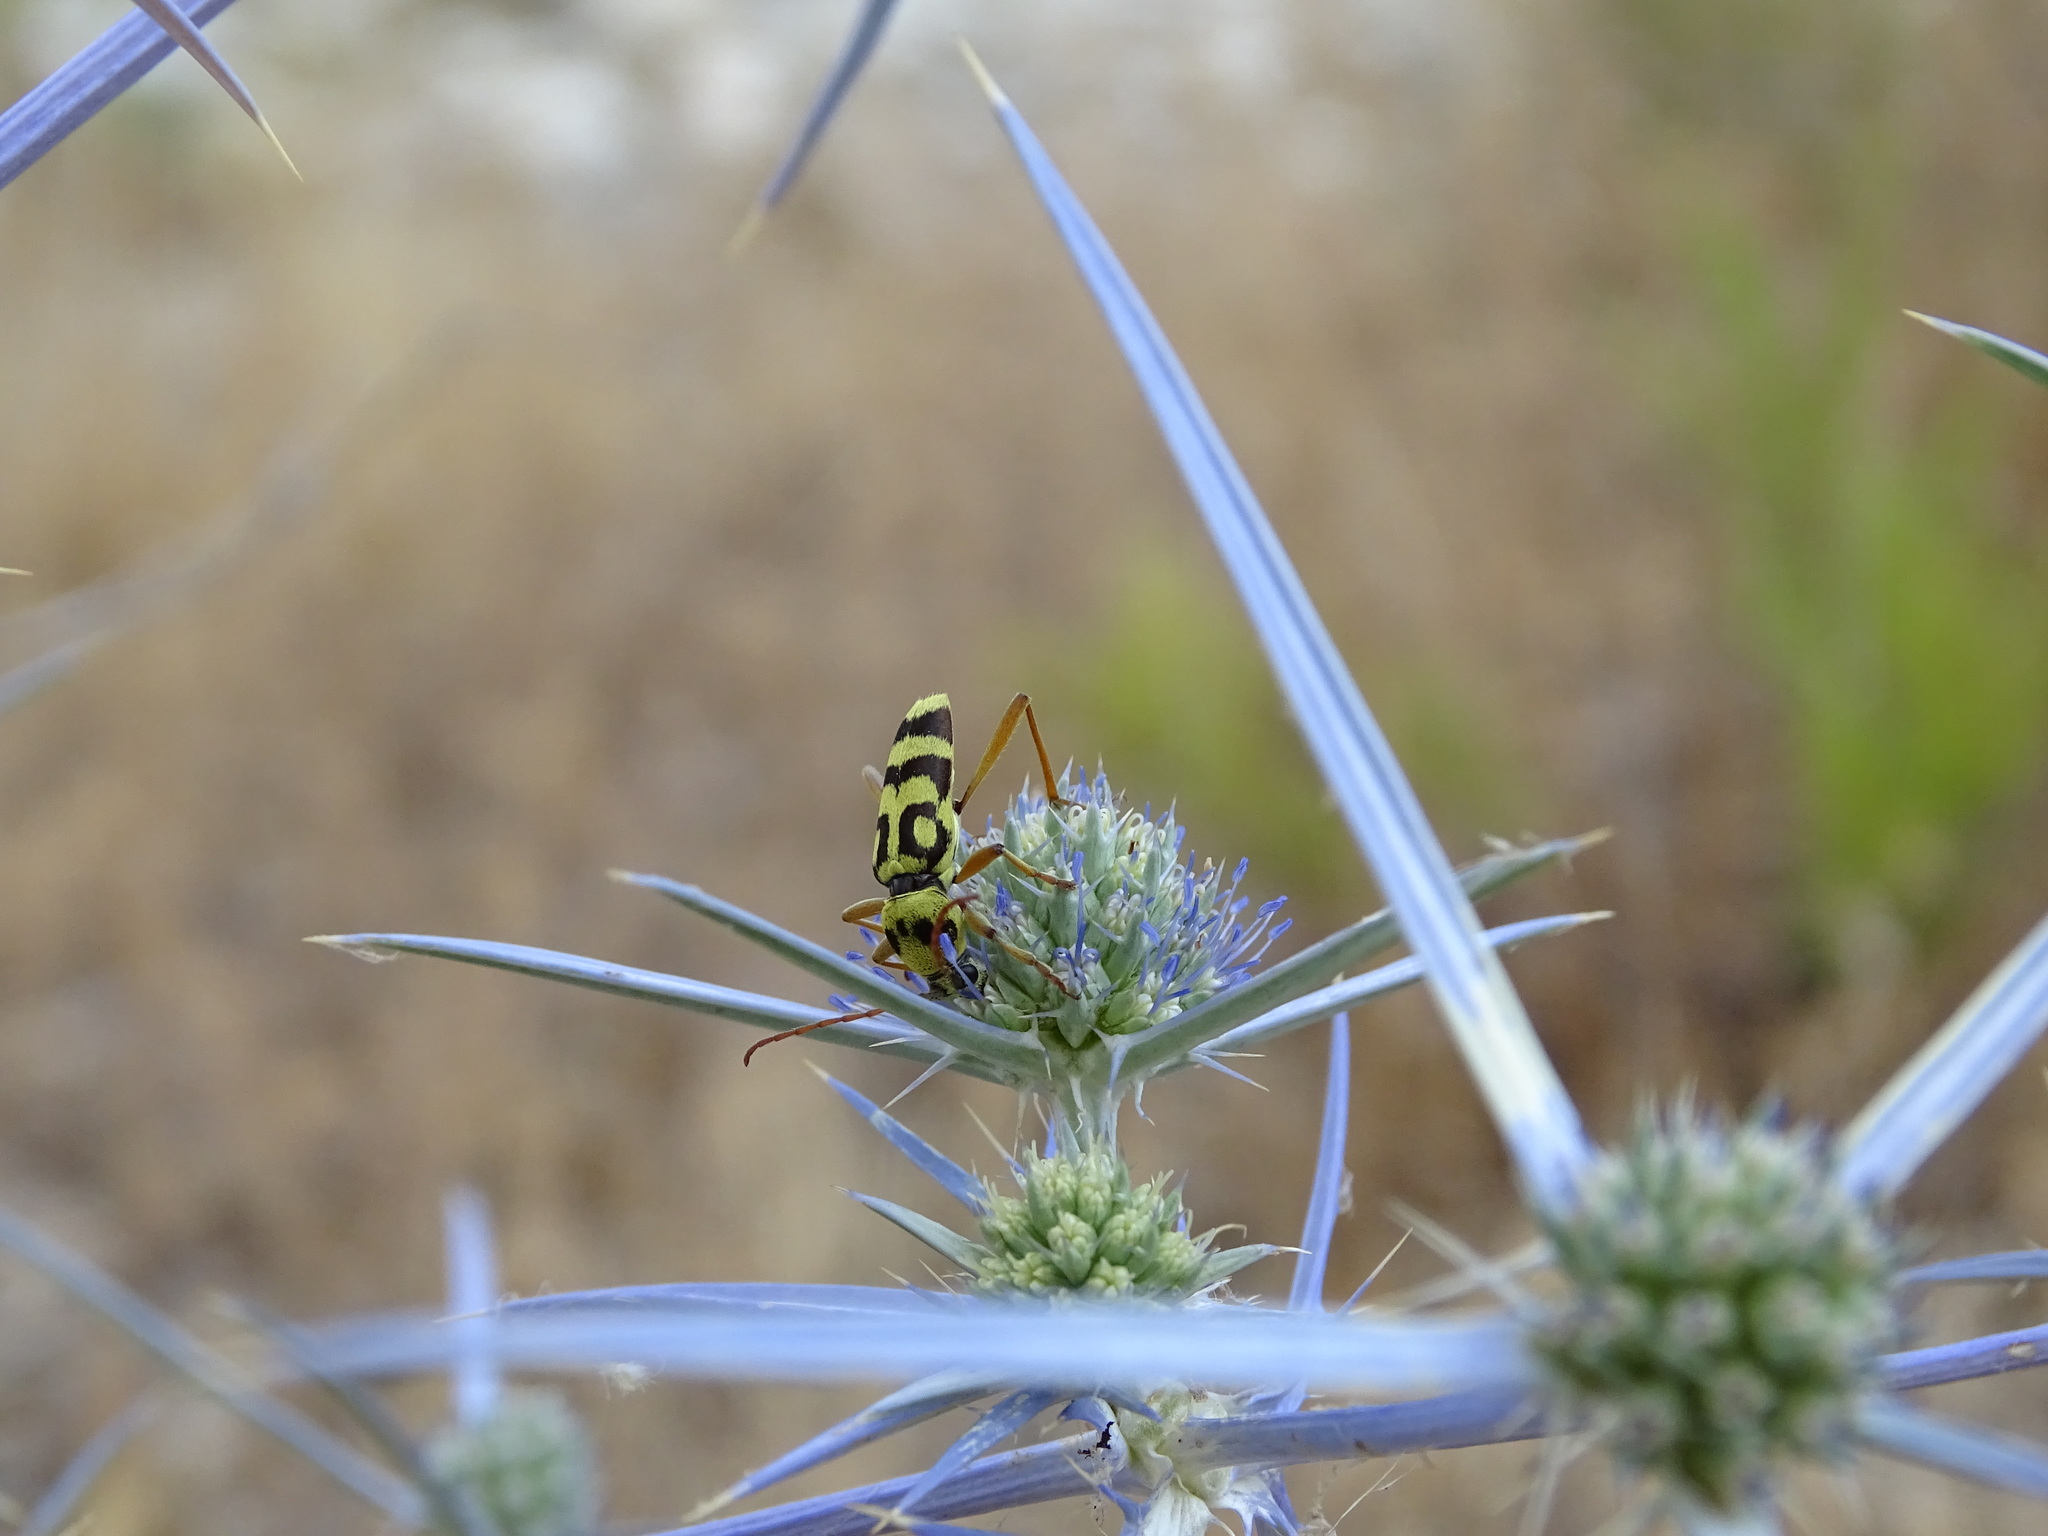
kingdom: Animalia
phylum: Arthropoda
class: Insecta
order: Coleoptera
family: Cerambycidae
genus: Chlorophorus
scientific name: Chlorophorus varius
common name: Grape wood borer
